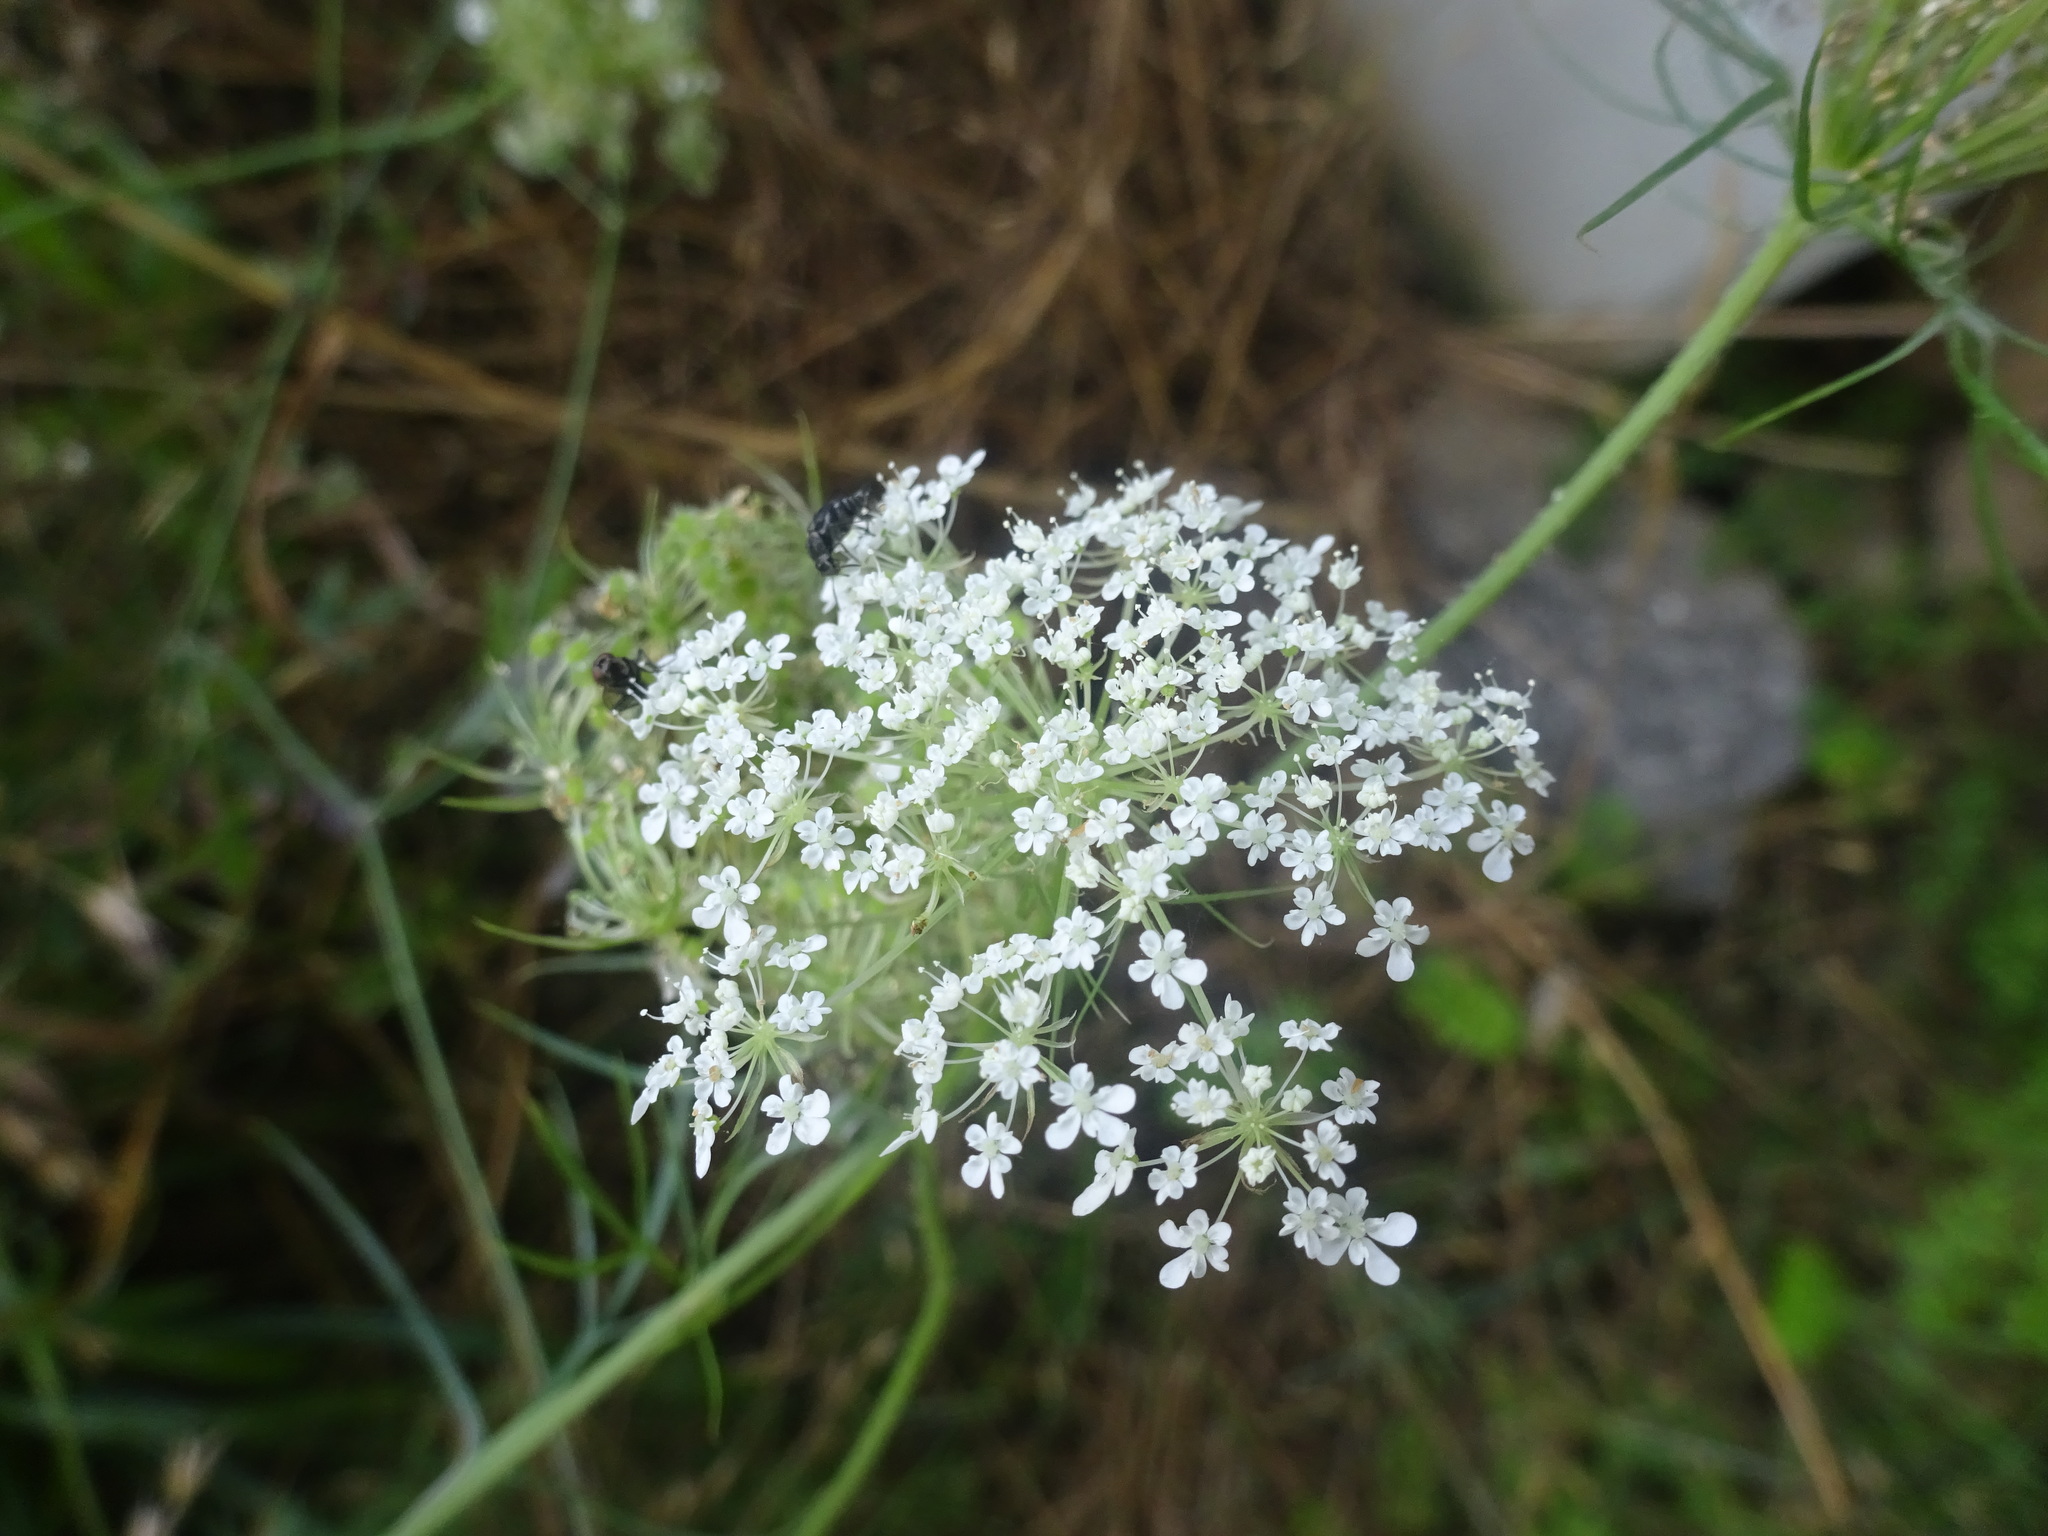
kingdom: Plantae
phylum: Tracheophyta
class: Magnoliopsida
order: Apiales
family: Apiaceae
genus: Daucus
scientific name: Daucus carota
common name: Wild carrot
